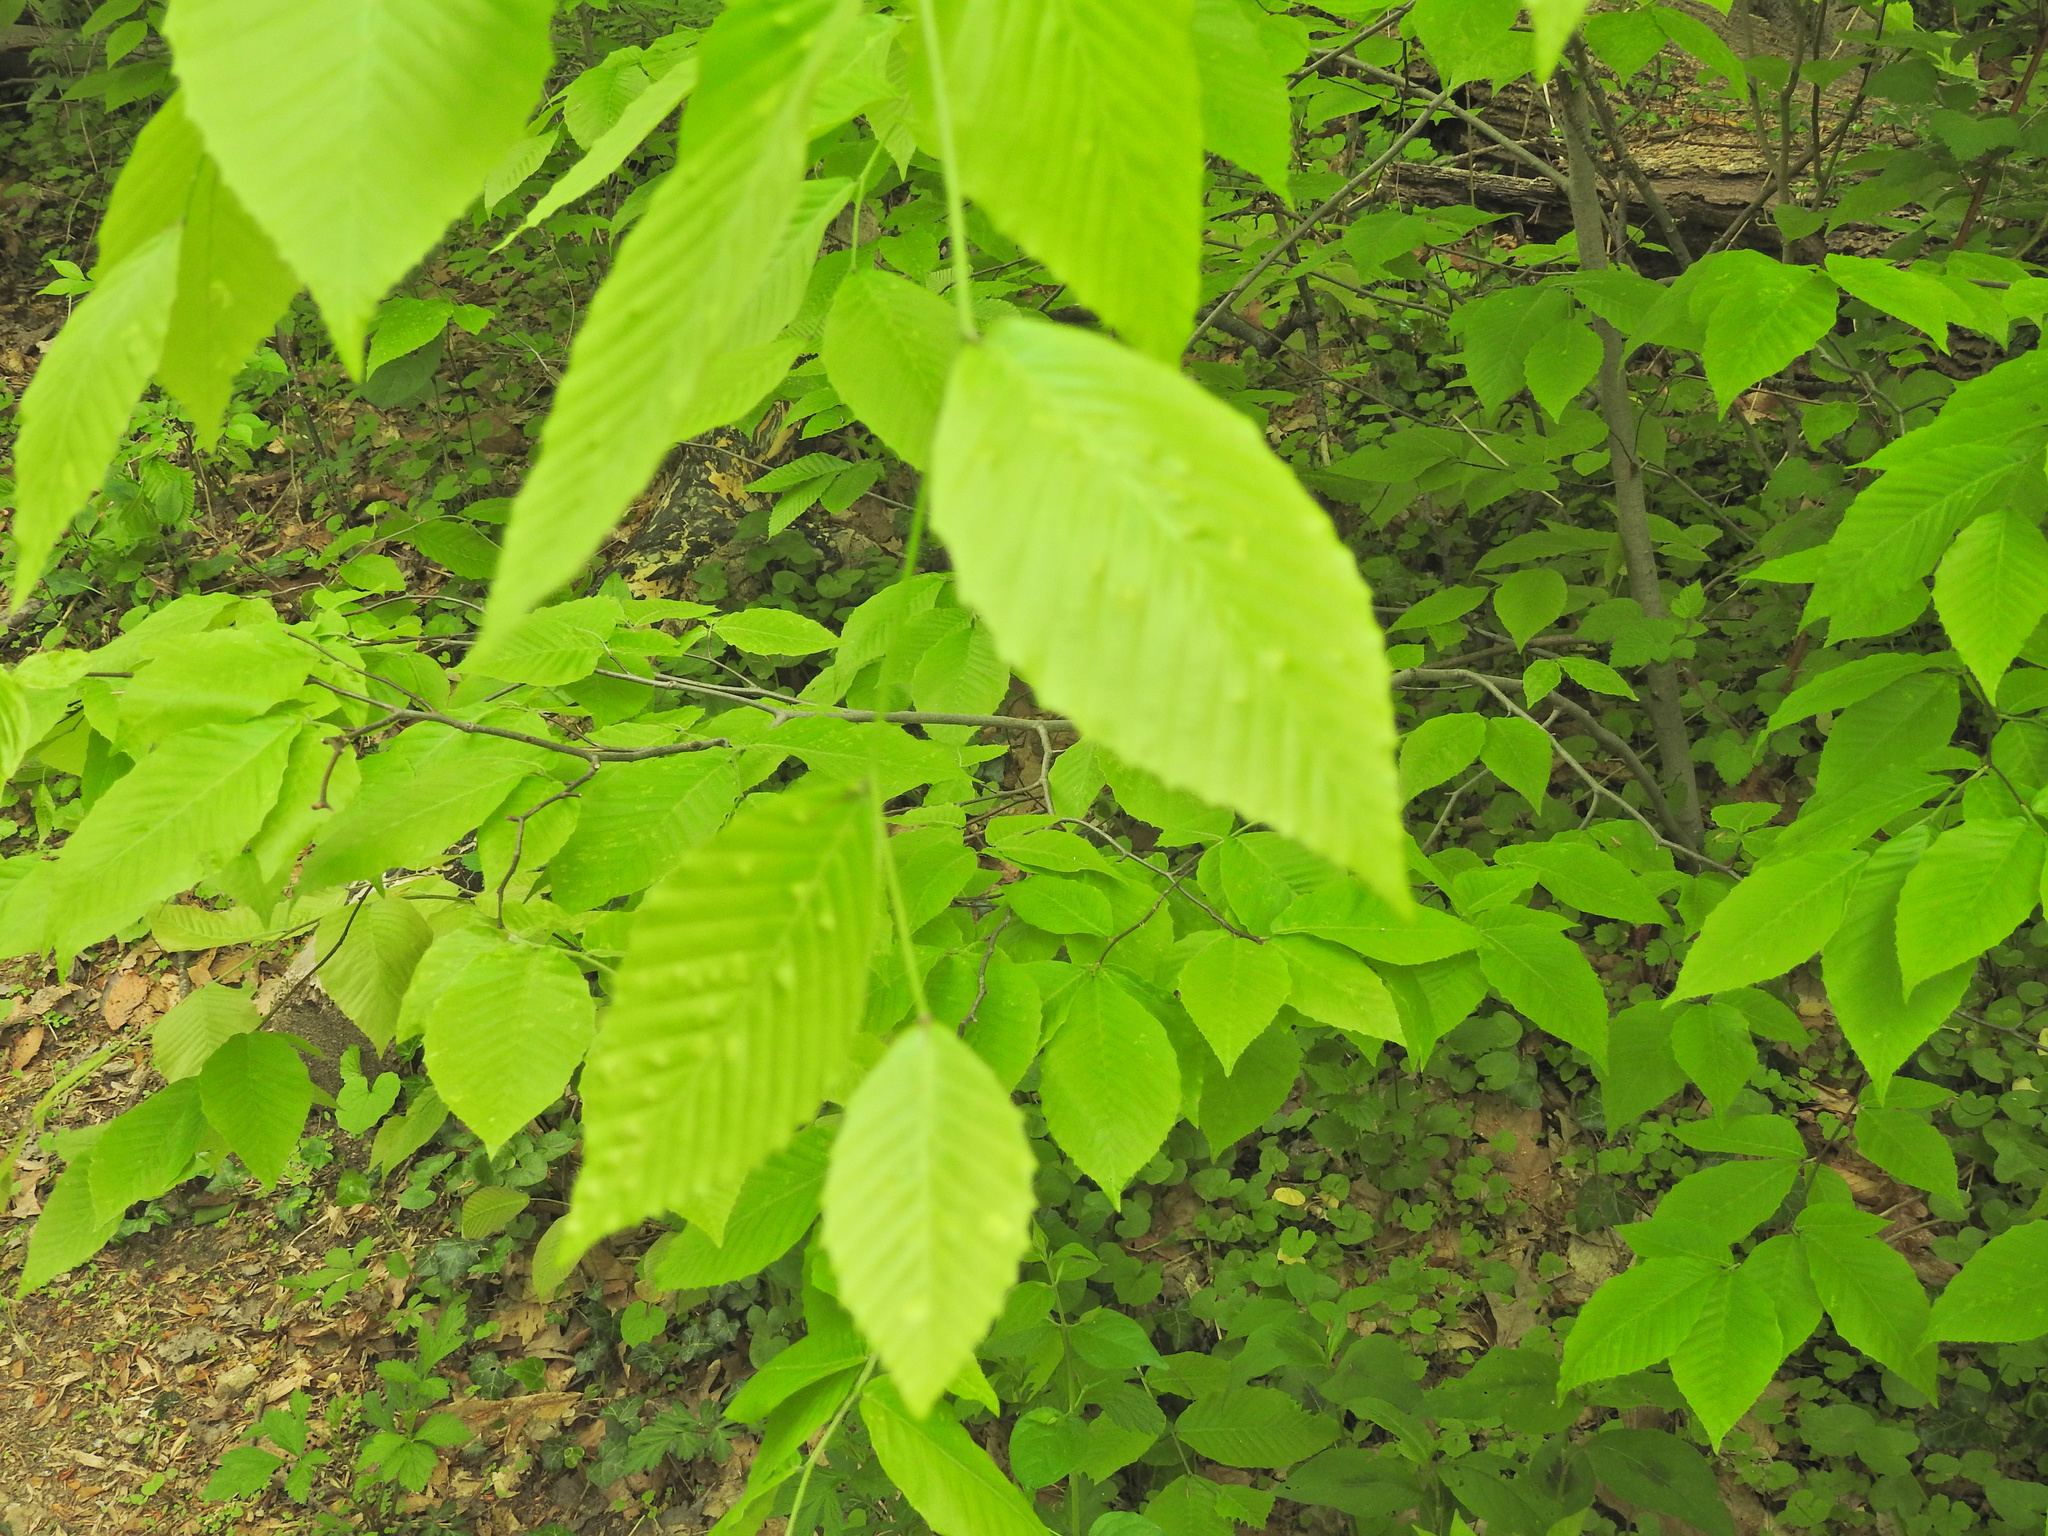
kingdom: Plantae
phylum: Tracheophyta
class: Magnoliopsida
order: Fagales
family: Fagaceae
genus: Fagus
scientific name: Fagus grandifolia
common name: American beech
